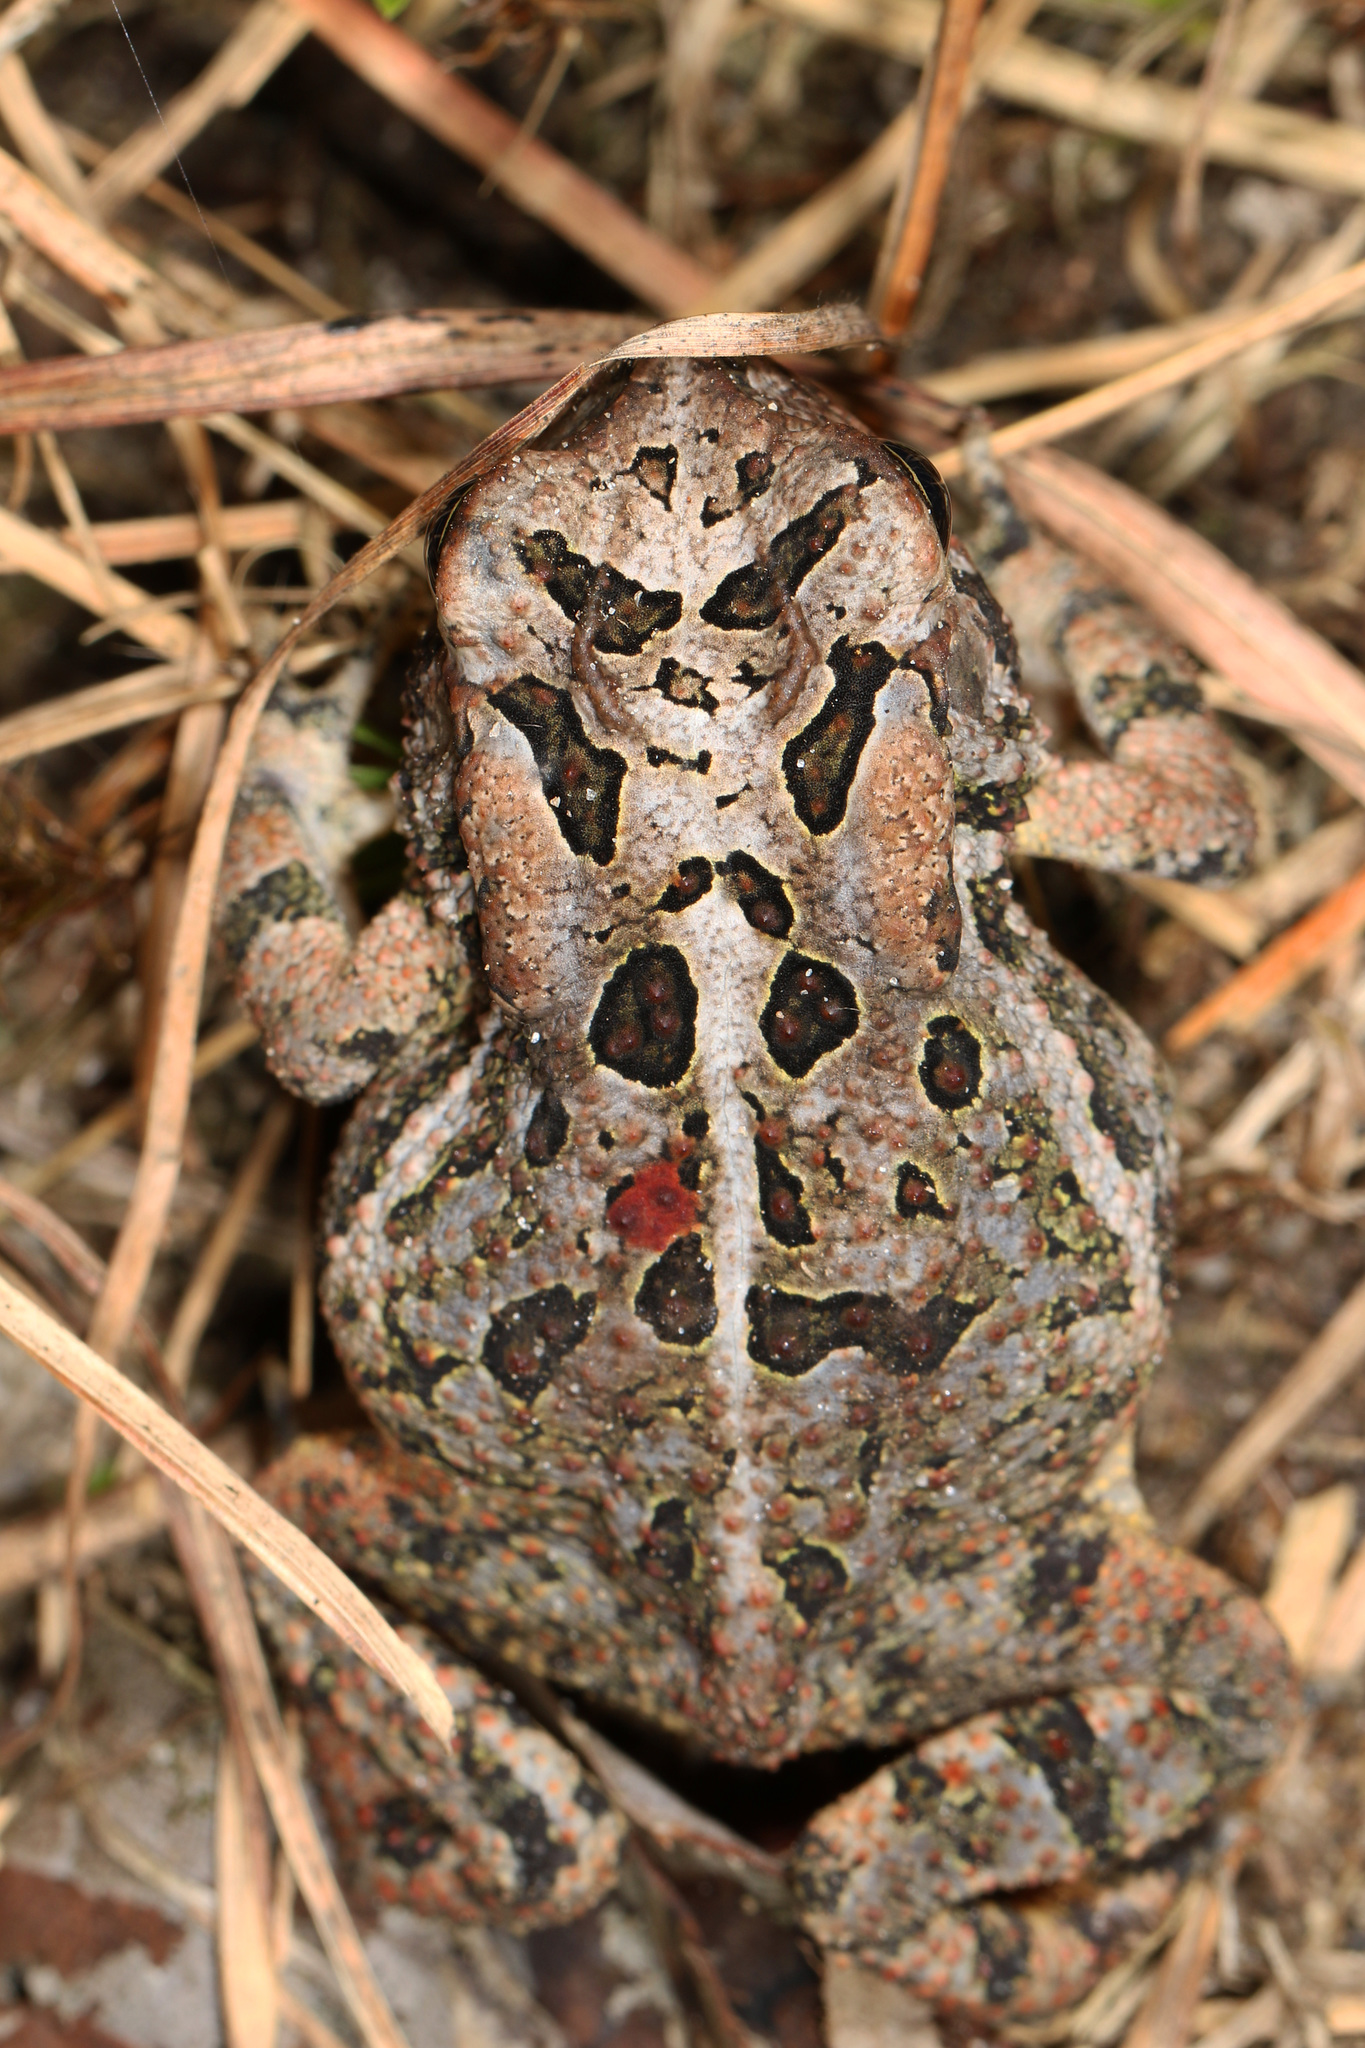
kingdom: Animalia
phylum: Chordata
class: Amphibia
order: Anura
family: Bufonidae
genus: Anaxyrus
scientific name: Anaxyrus terrestris
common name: Southern toad
